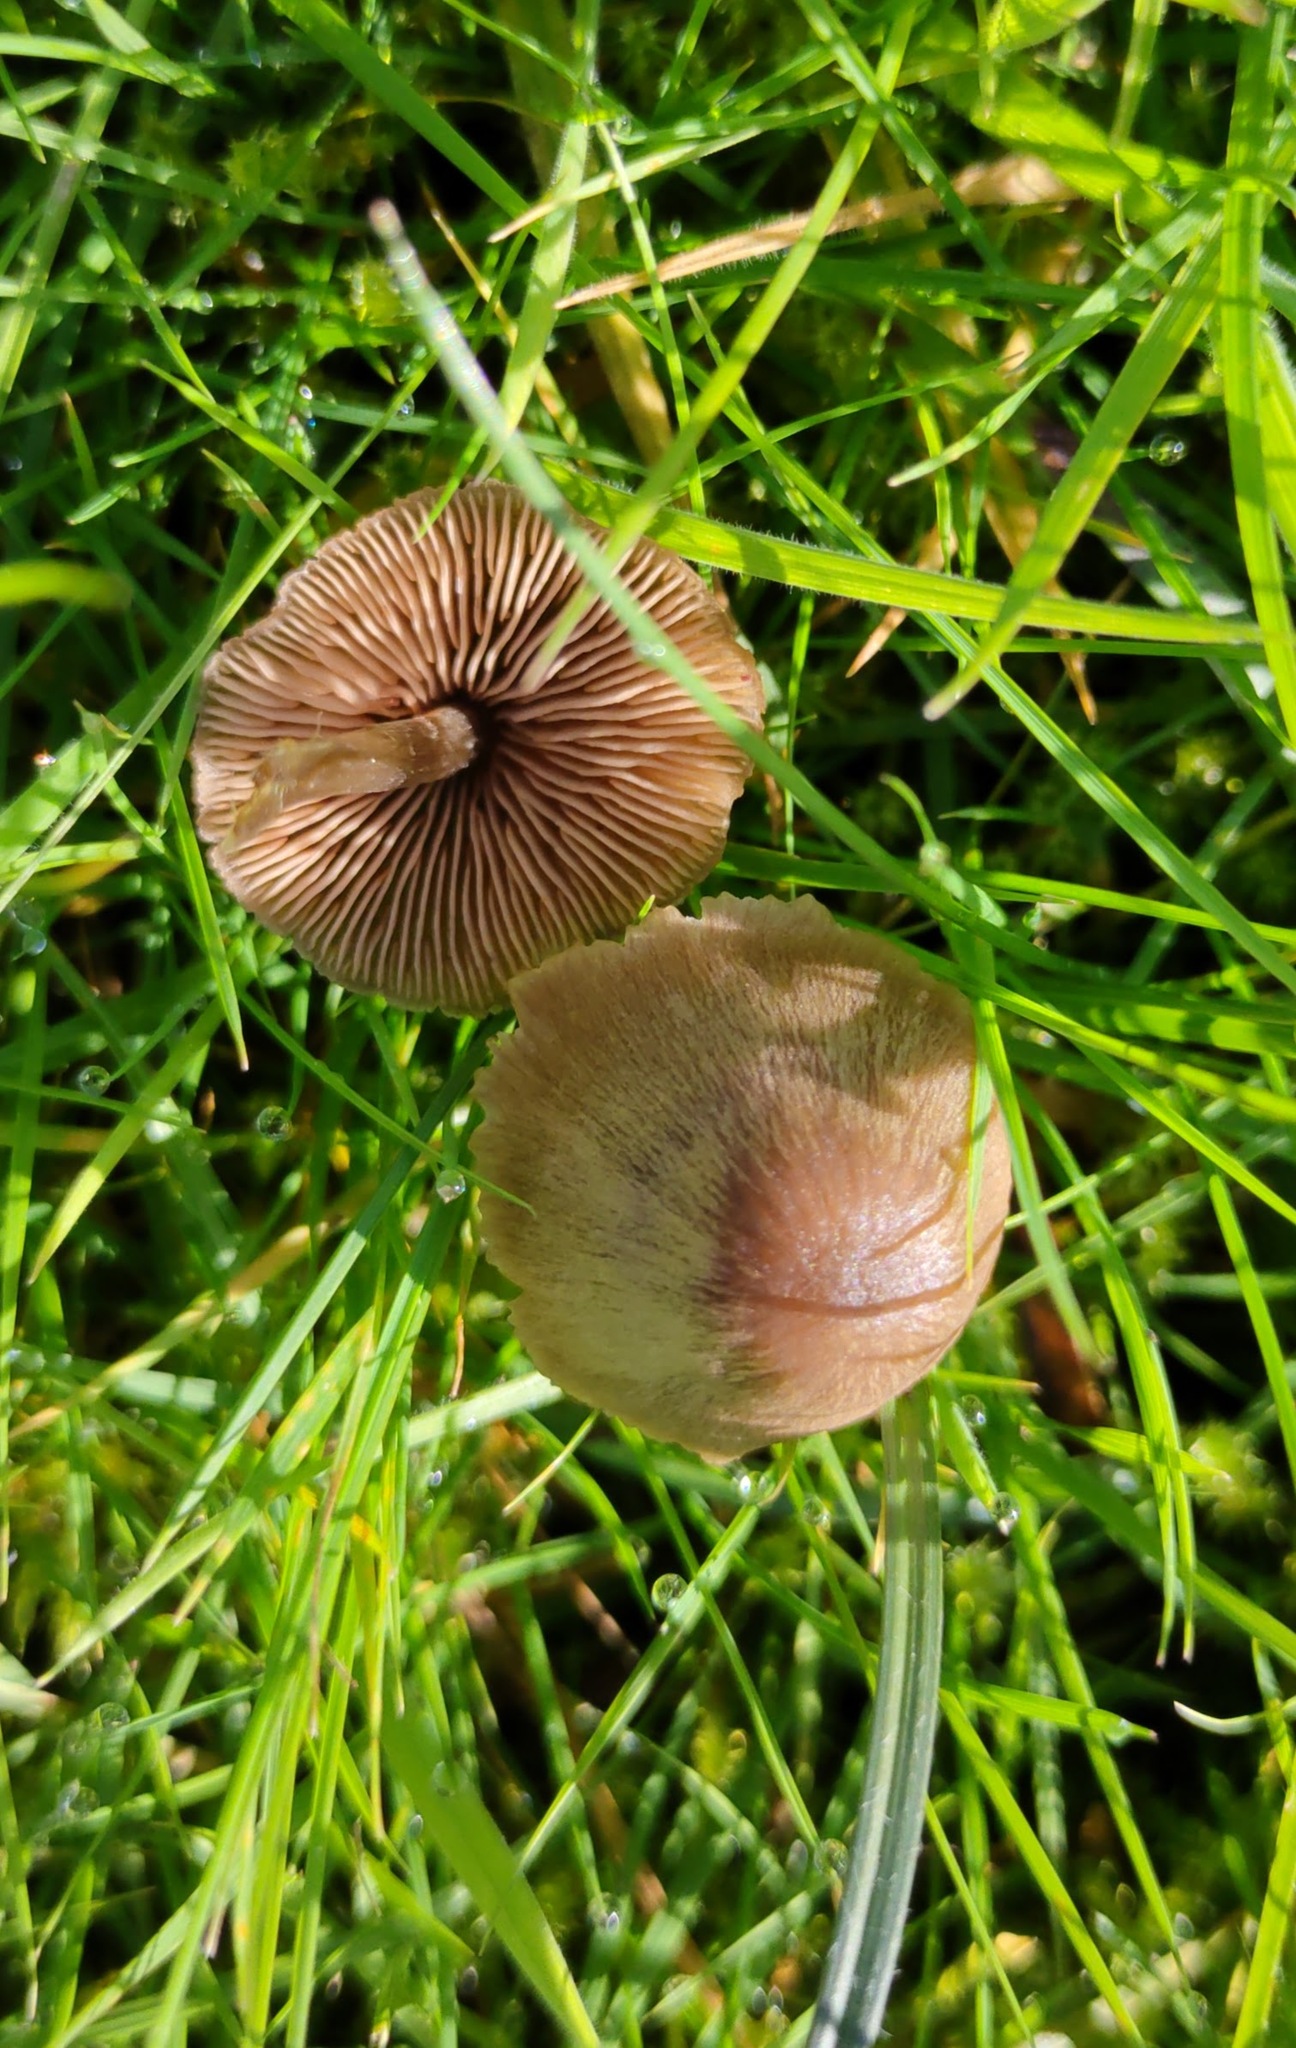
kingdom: Fungi
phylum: Basidiomycota
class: Agaricomycetes
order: Agaricales
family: Entolomataceae
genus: Entoloma
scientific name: Entoloma conferendum
